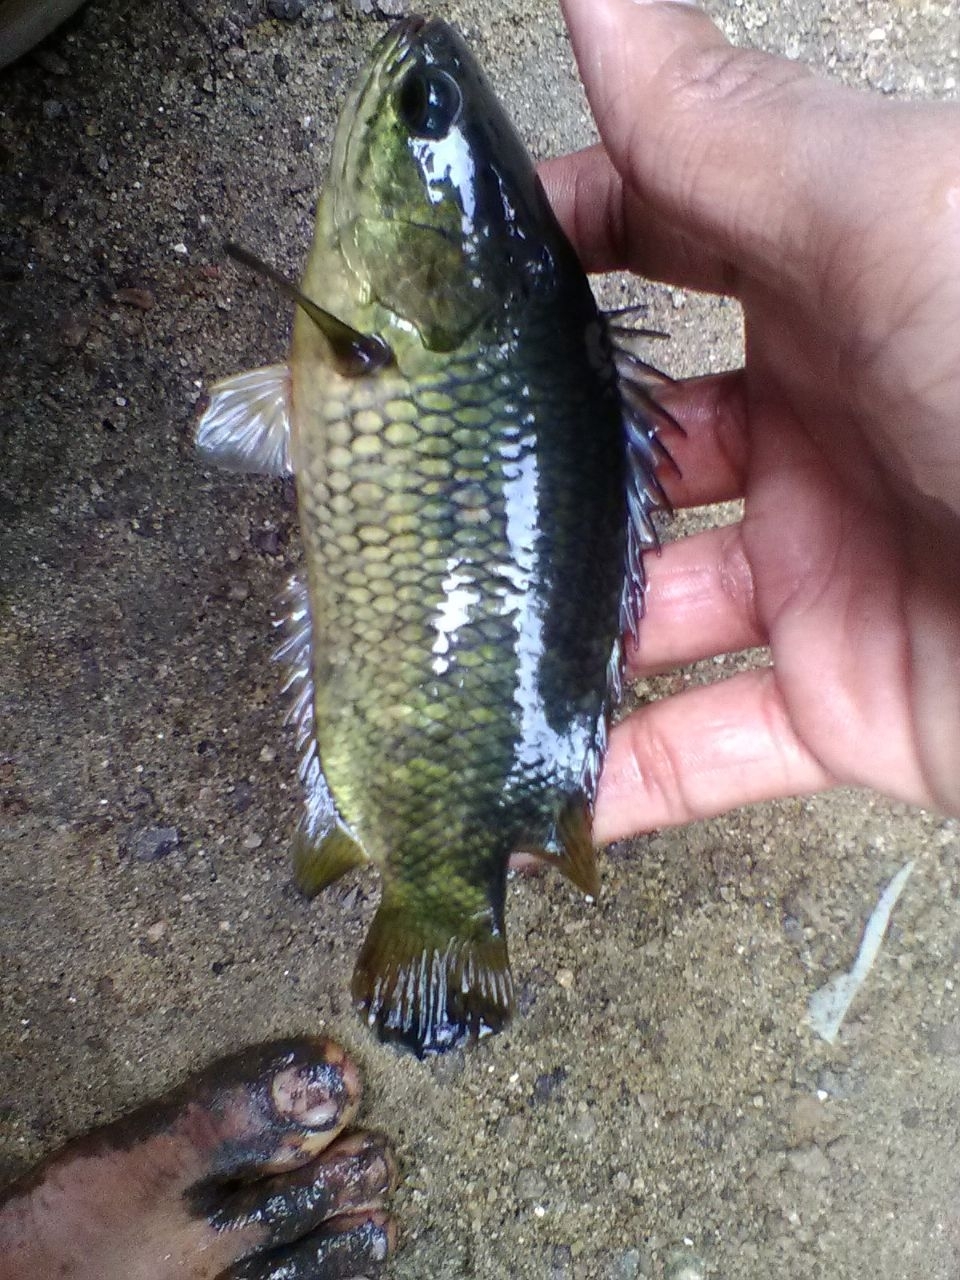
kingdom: Animalia
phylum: Chordata
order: Perciformes
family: Anabantidae
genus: Anabas
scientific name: Anabas testudineus
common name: Climbing perch
